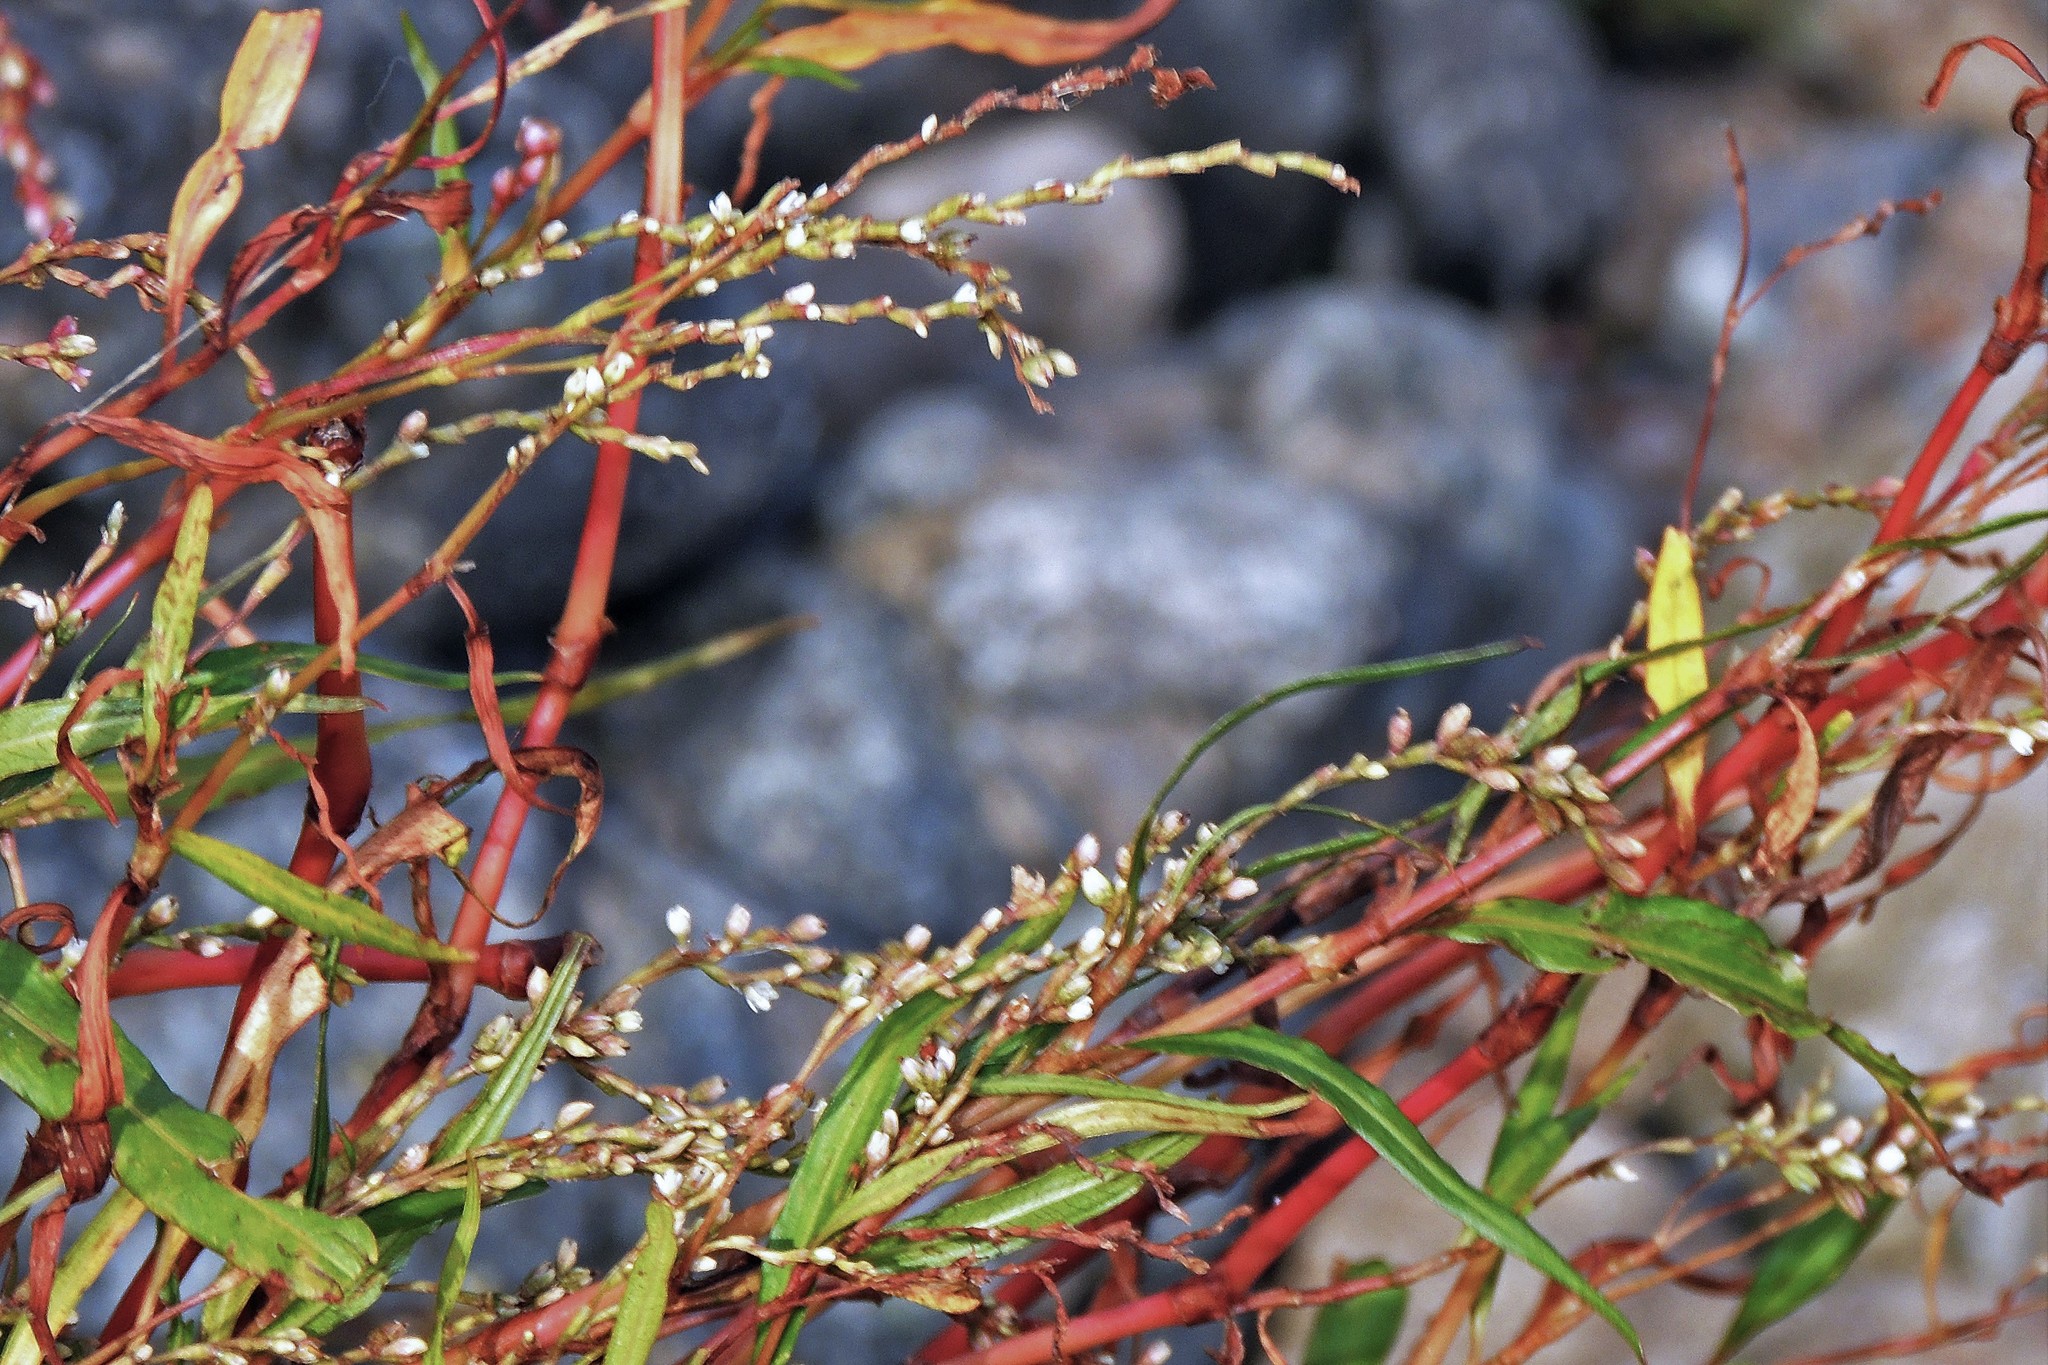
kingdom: Plantae
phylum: Tracheophyta
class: Magnoliopsida
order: Caryophyllales
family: Polygonaceae
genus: Persicaria
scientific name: Persicaria punctata
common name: Dotted smartweed
